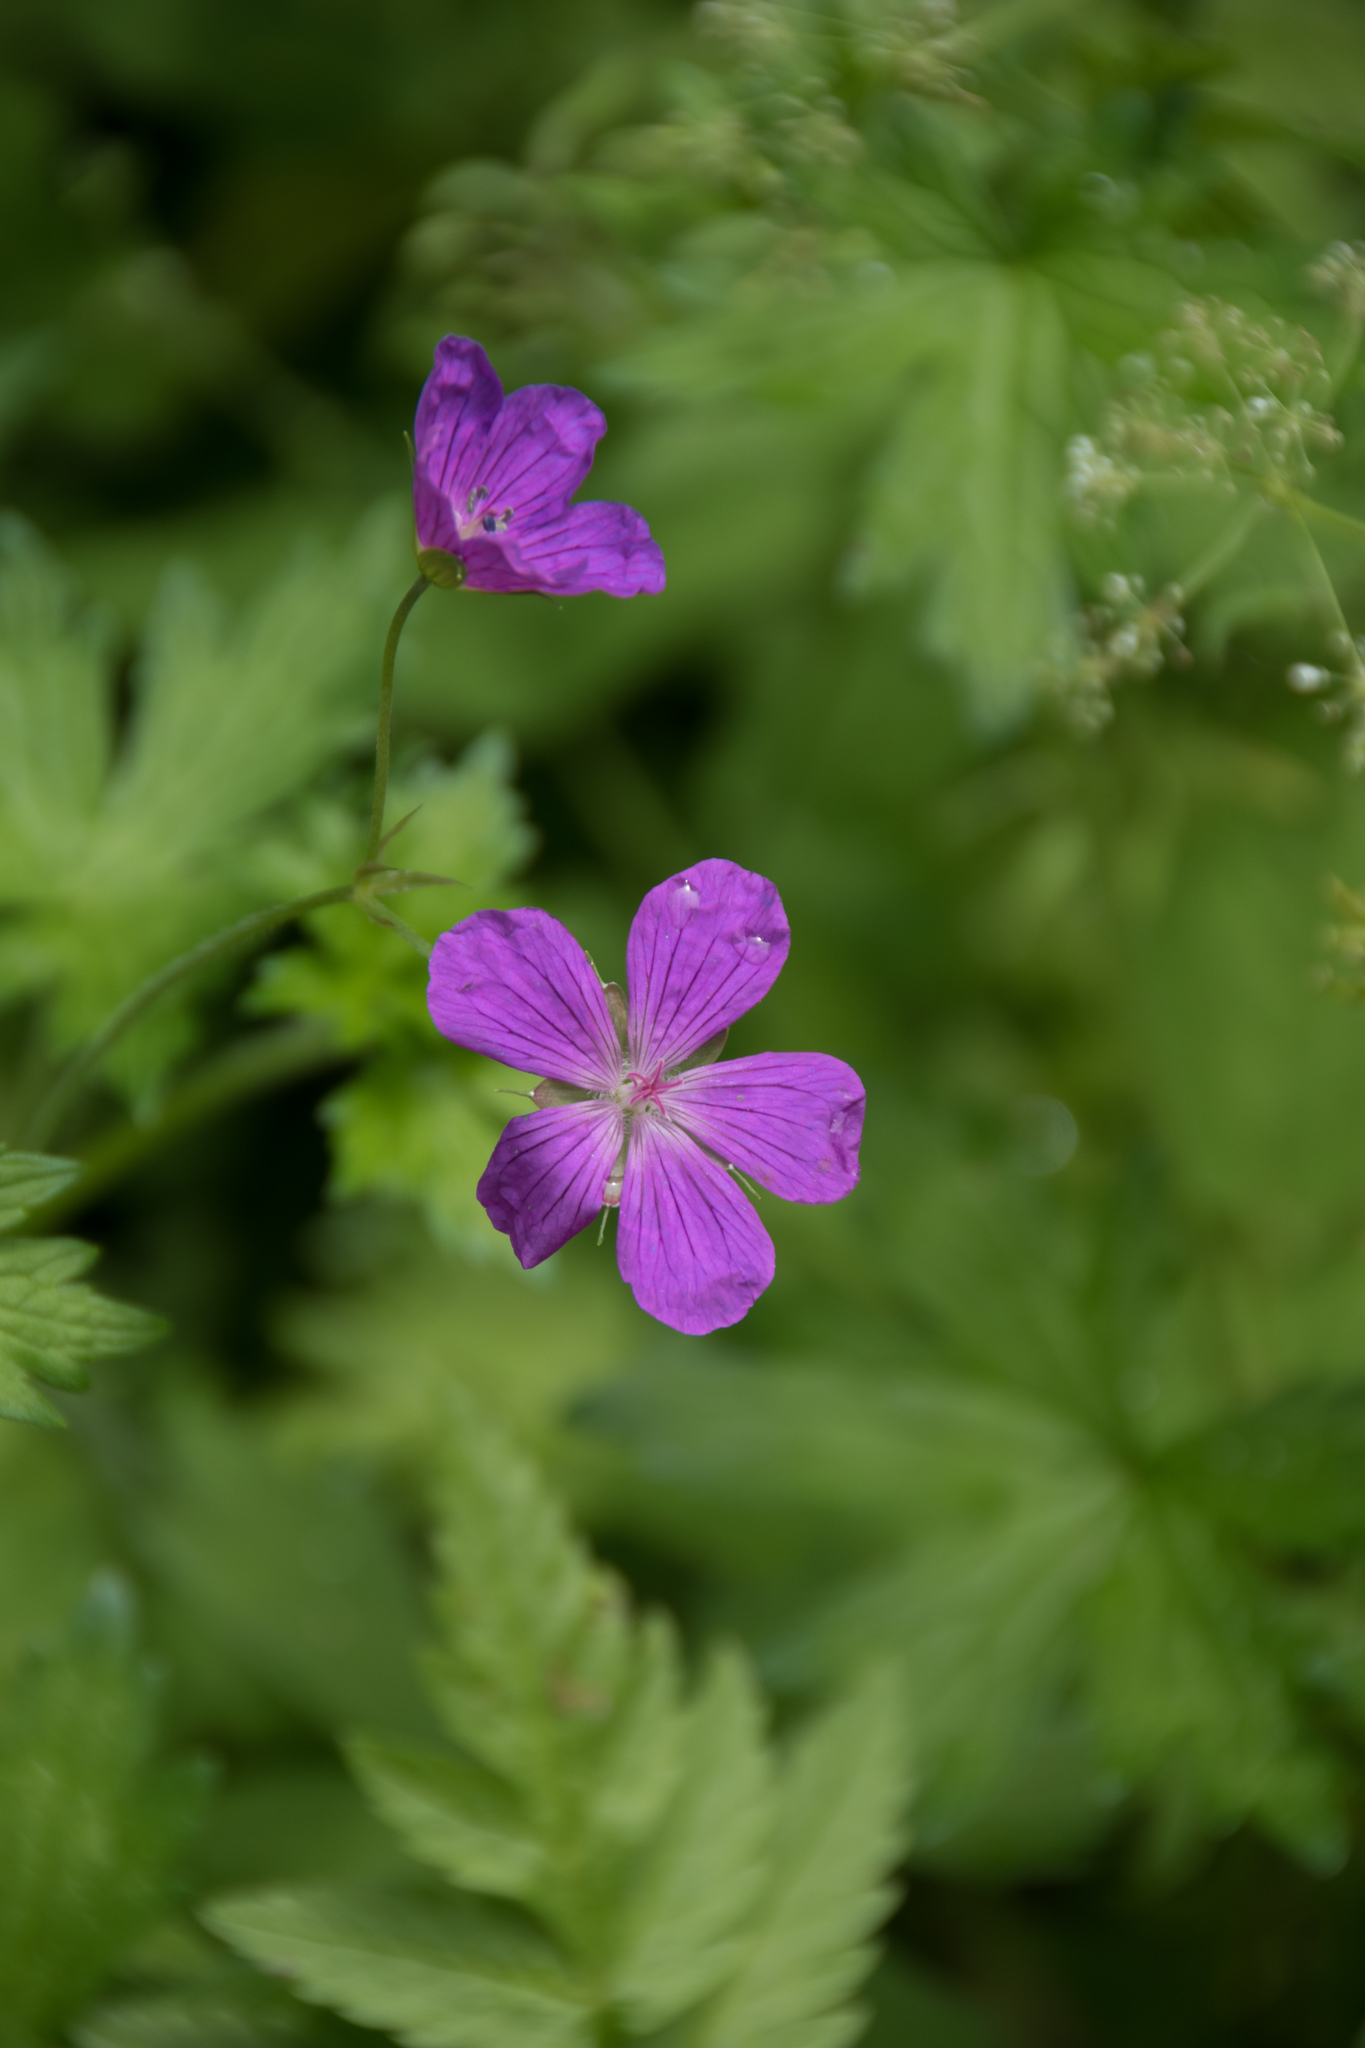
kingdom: Plantae
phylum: Tracheophyta
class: Magnoliopsida
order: Geraniales
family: Geraniaceae
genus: Geranium
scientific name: Geranium palustre
